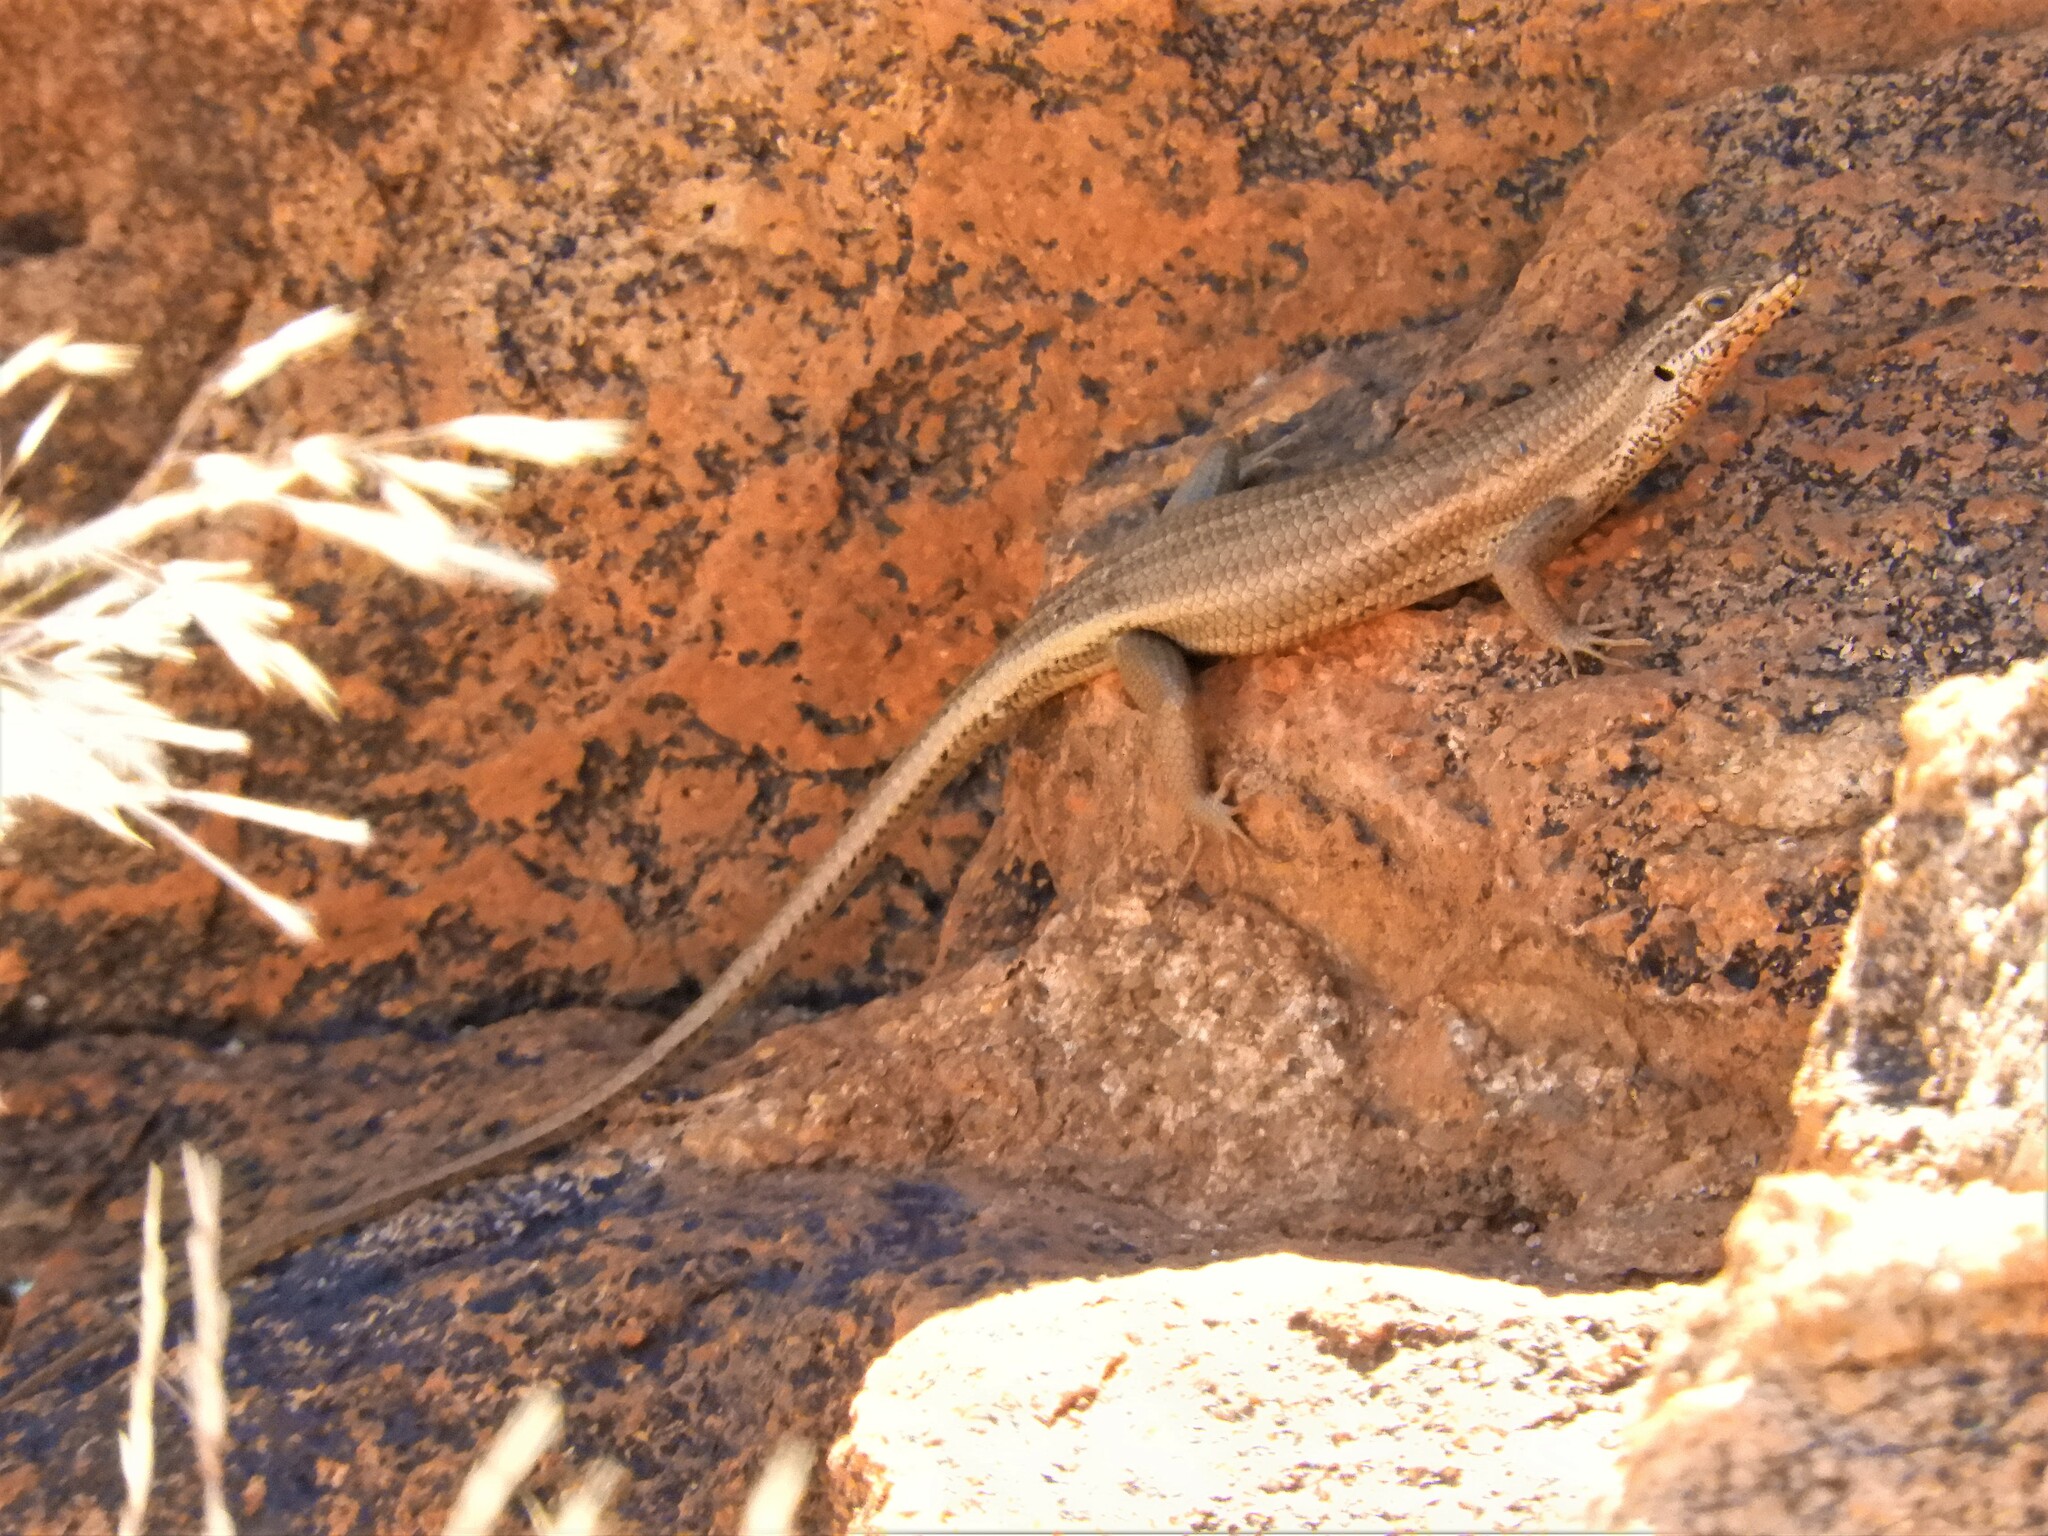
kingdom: Animalia
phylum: Chordata
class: Squamata
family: Scincidae
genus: Trachylepis
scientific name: Trachylepis sulcata
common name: Western rock skink
